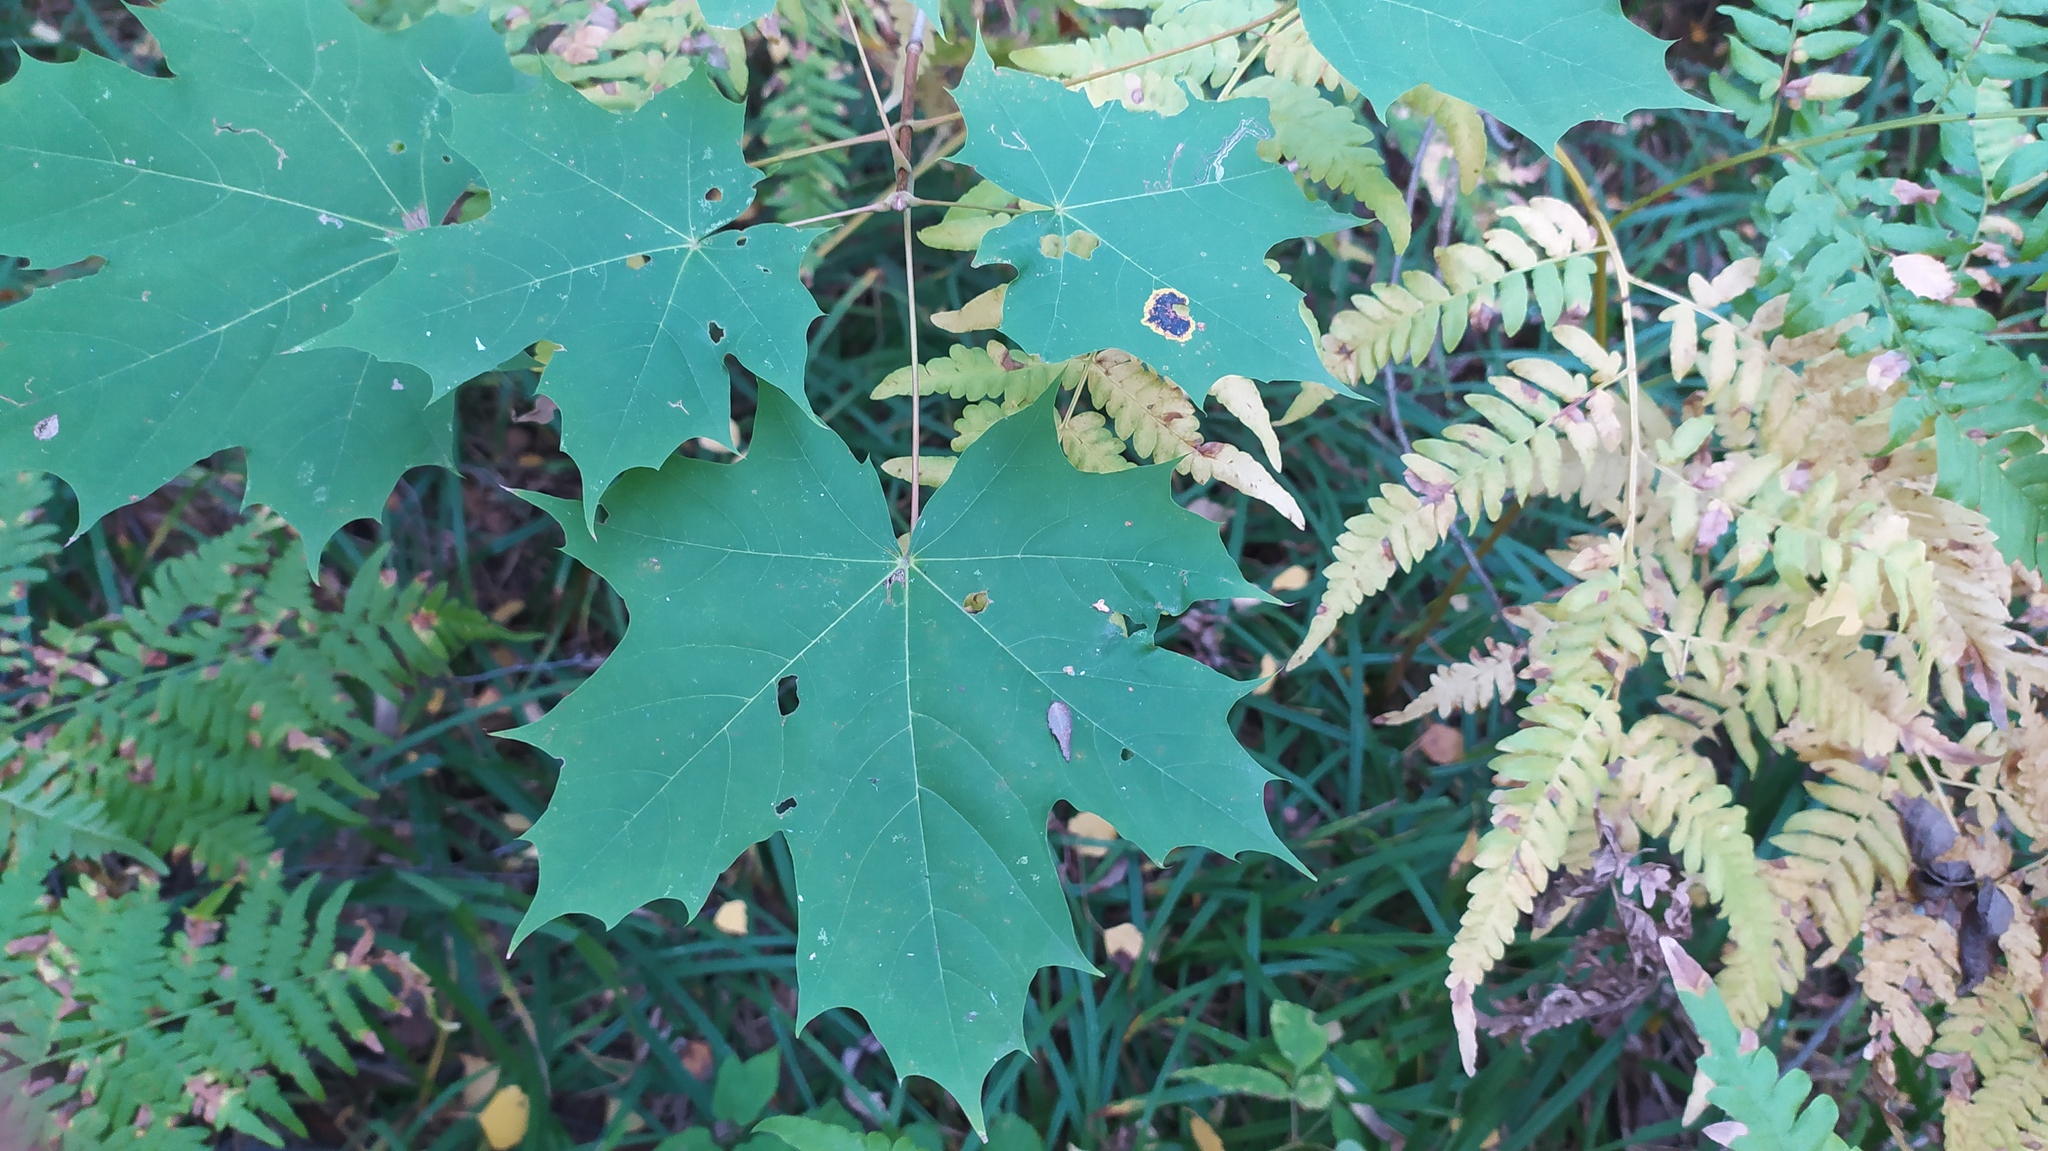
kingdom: Plantae
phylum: Tracheophyta
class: Magnoliopsida
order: Sapindales
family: Sapindaceae
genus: Acer
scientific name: Acer platanoides
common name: Norway maple
